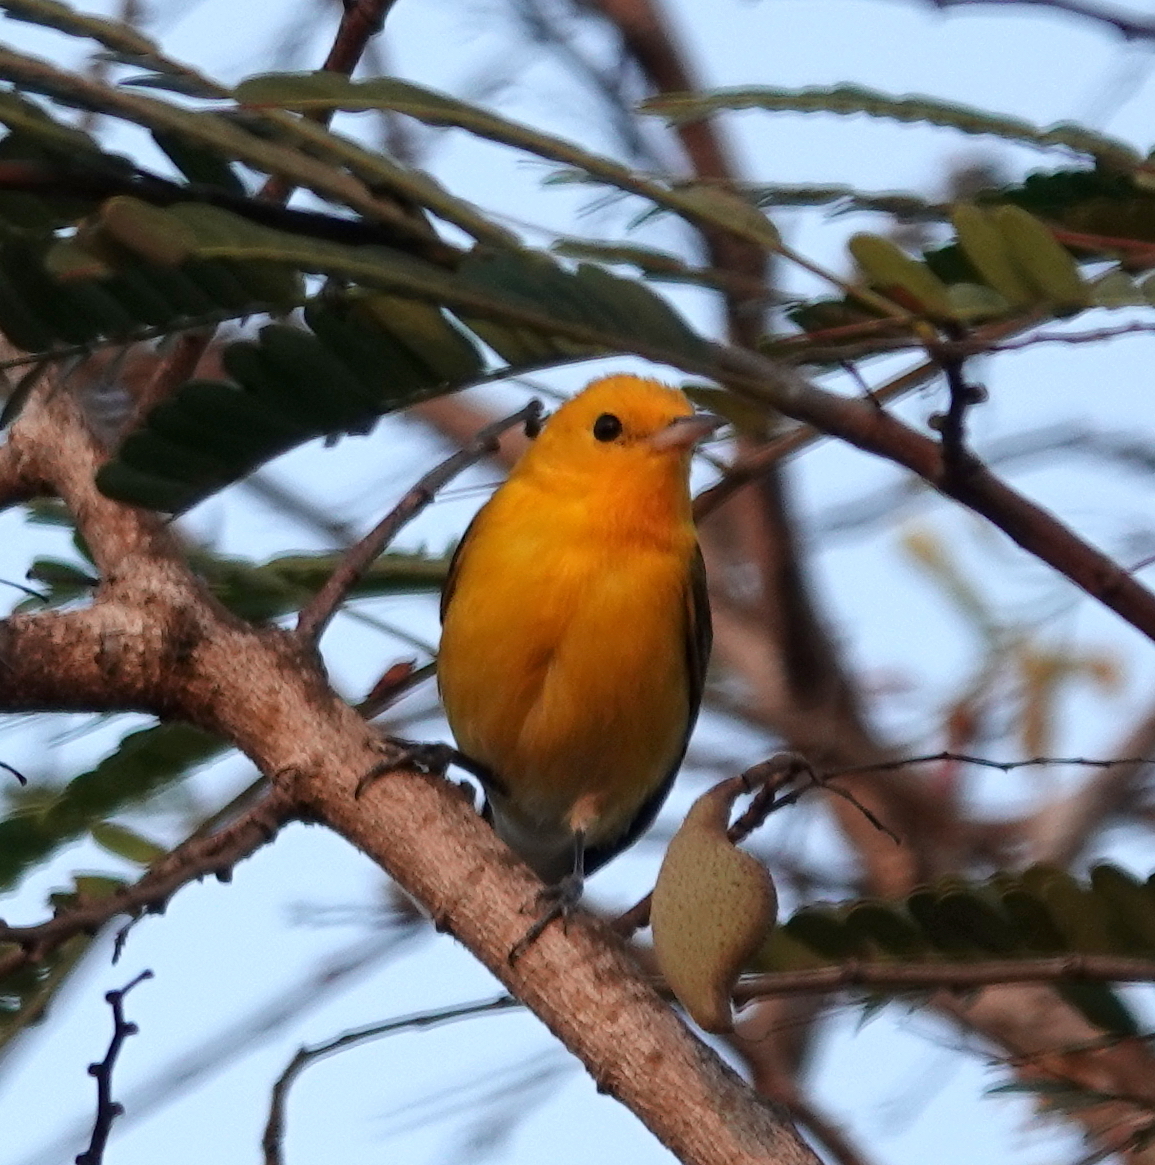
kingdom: Animalia
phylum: Chordata
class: Aves
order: Passeriformes
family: Parulidae
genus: Protonotaria
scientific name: Protonotaria citrea
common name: Prothonotary warbler
